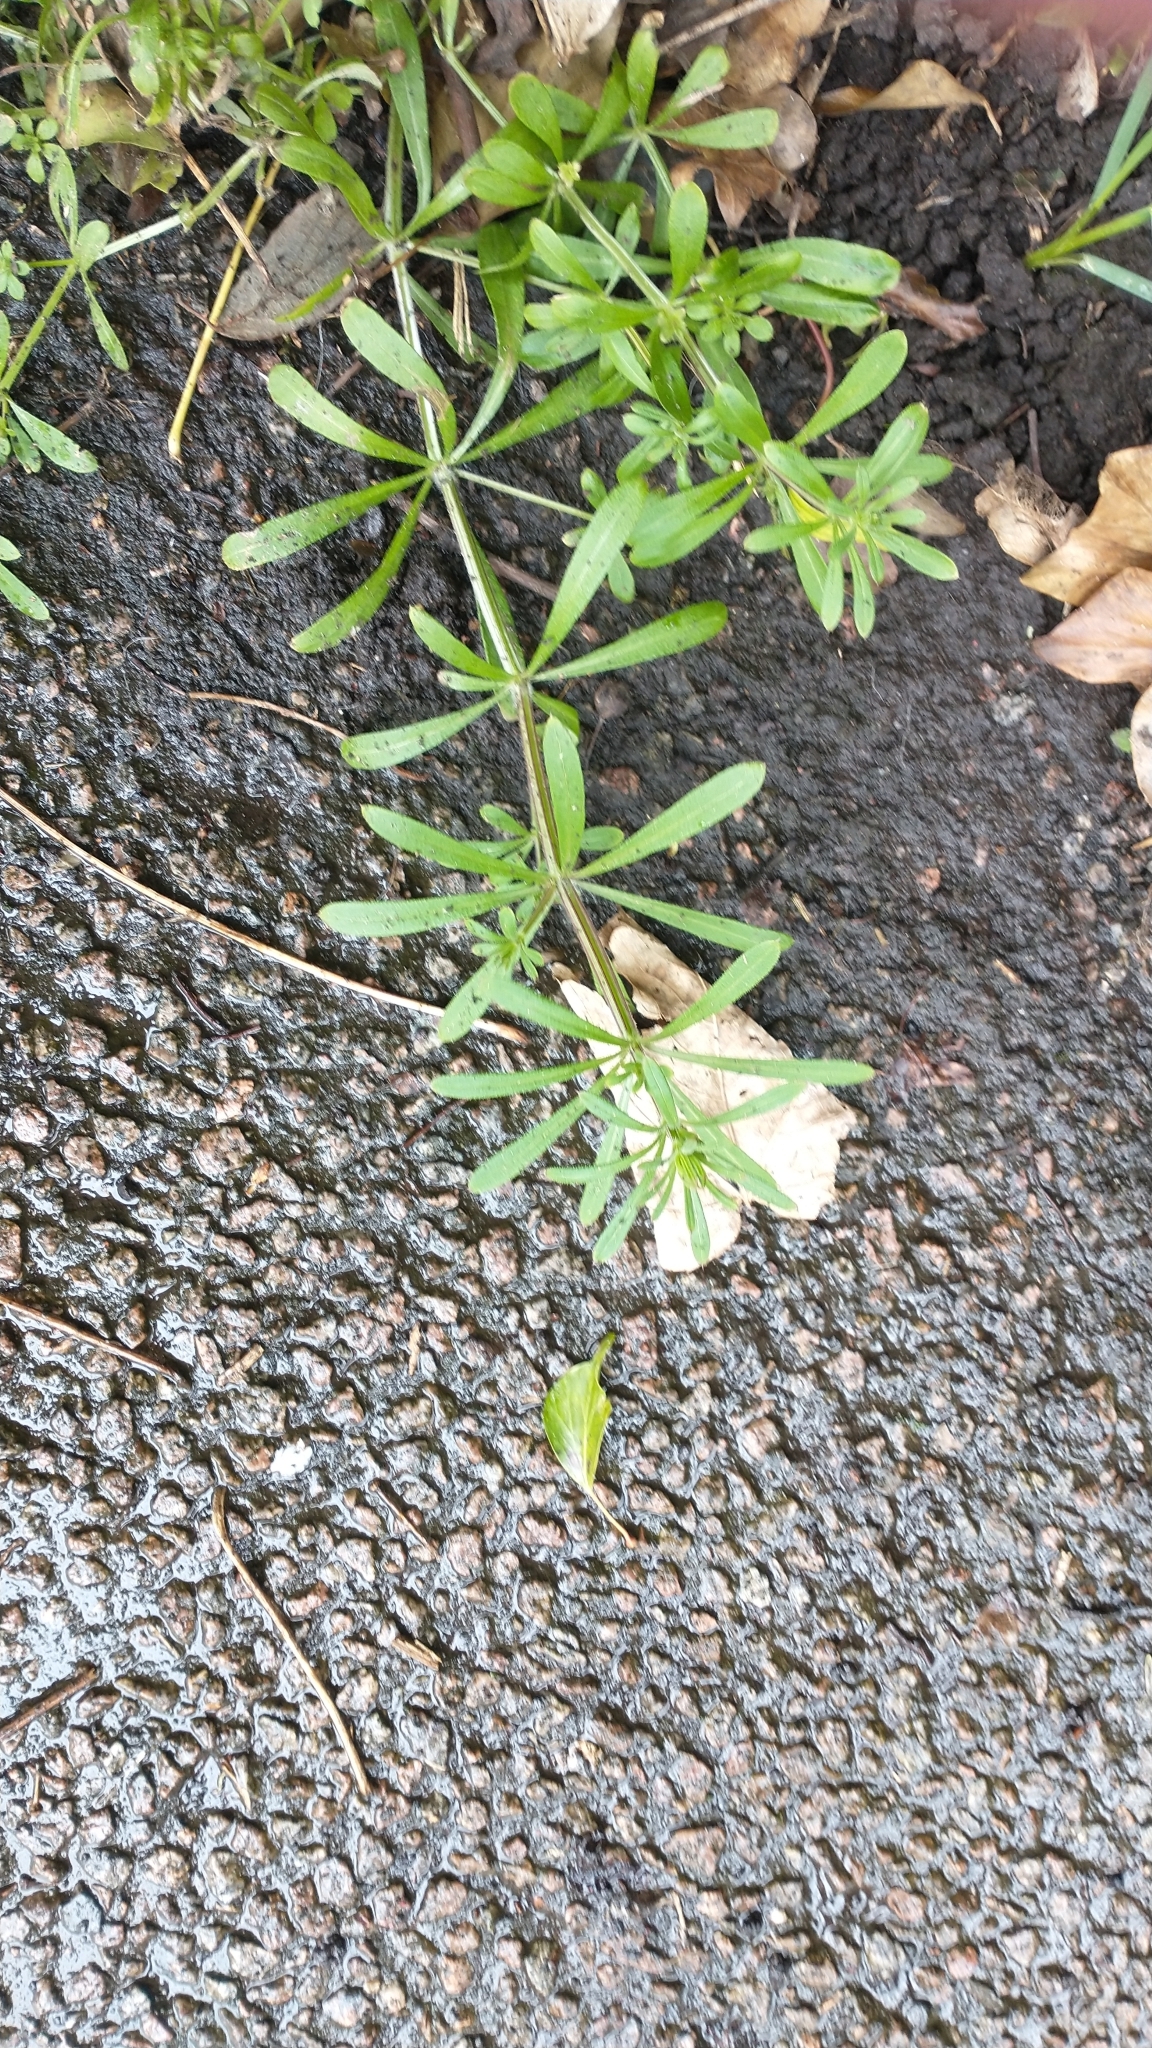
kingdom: Plantae
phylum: Tracheophyta
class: Magnoliopsida
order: Gentianales
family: Rubiaceae
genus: Galium
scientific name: Galium aparine
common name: Cleavers
